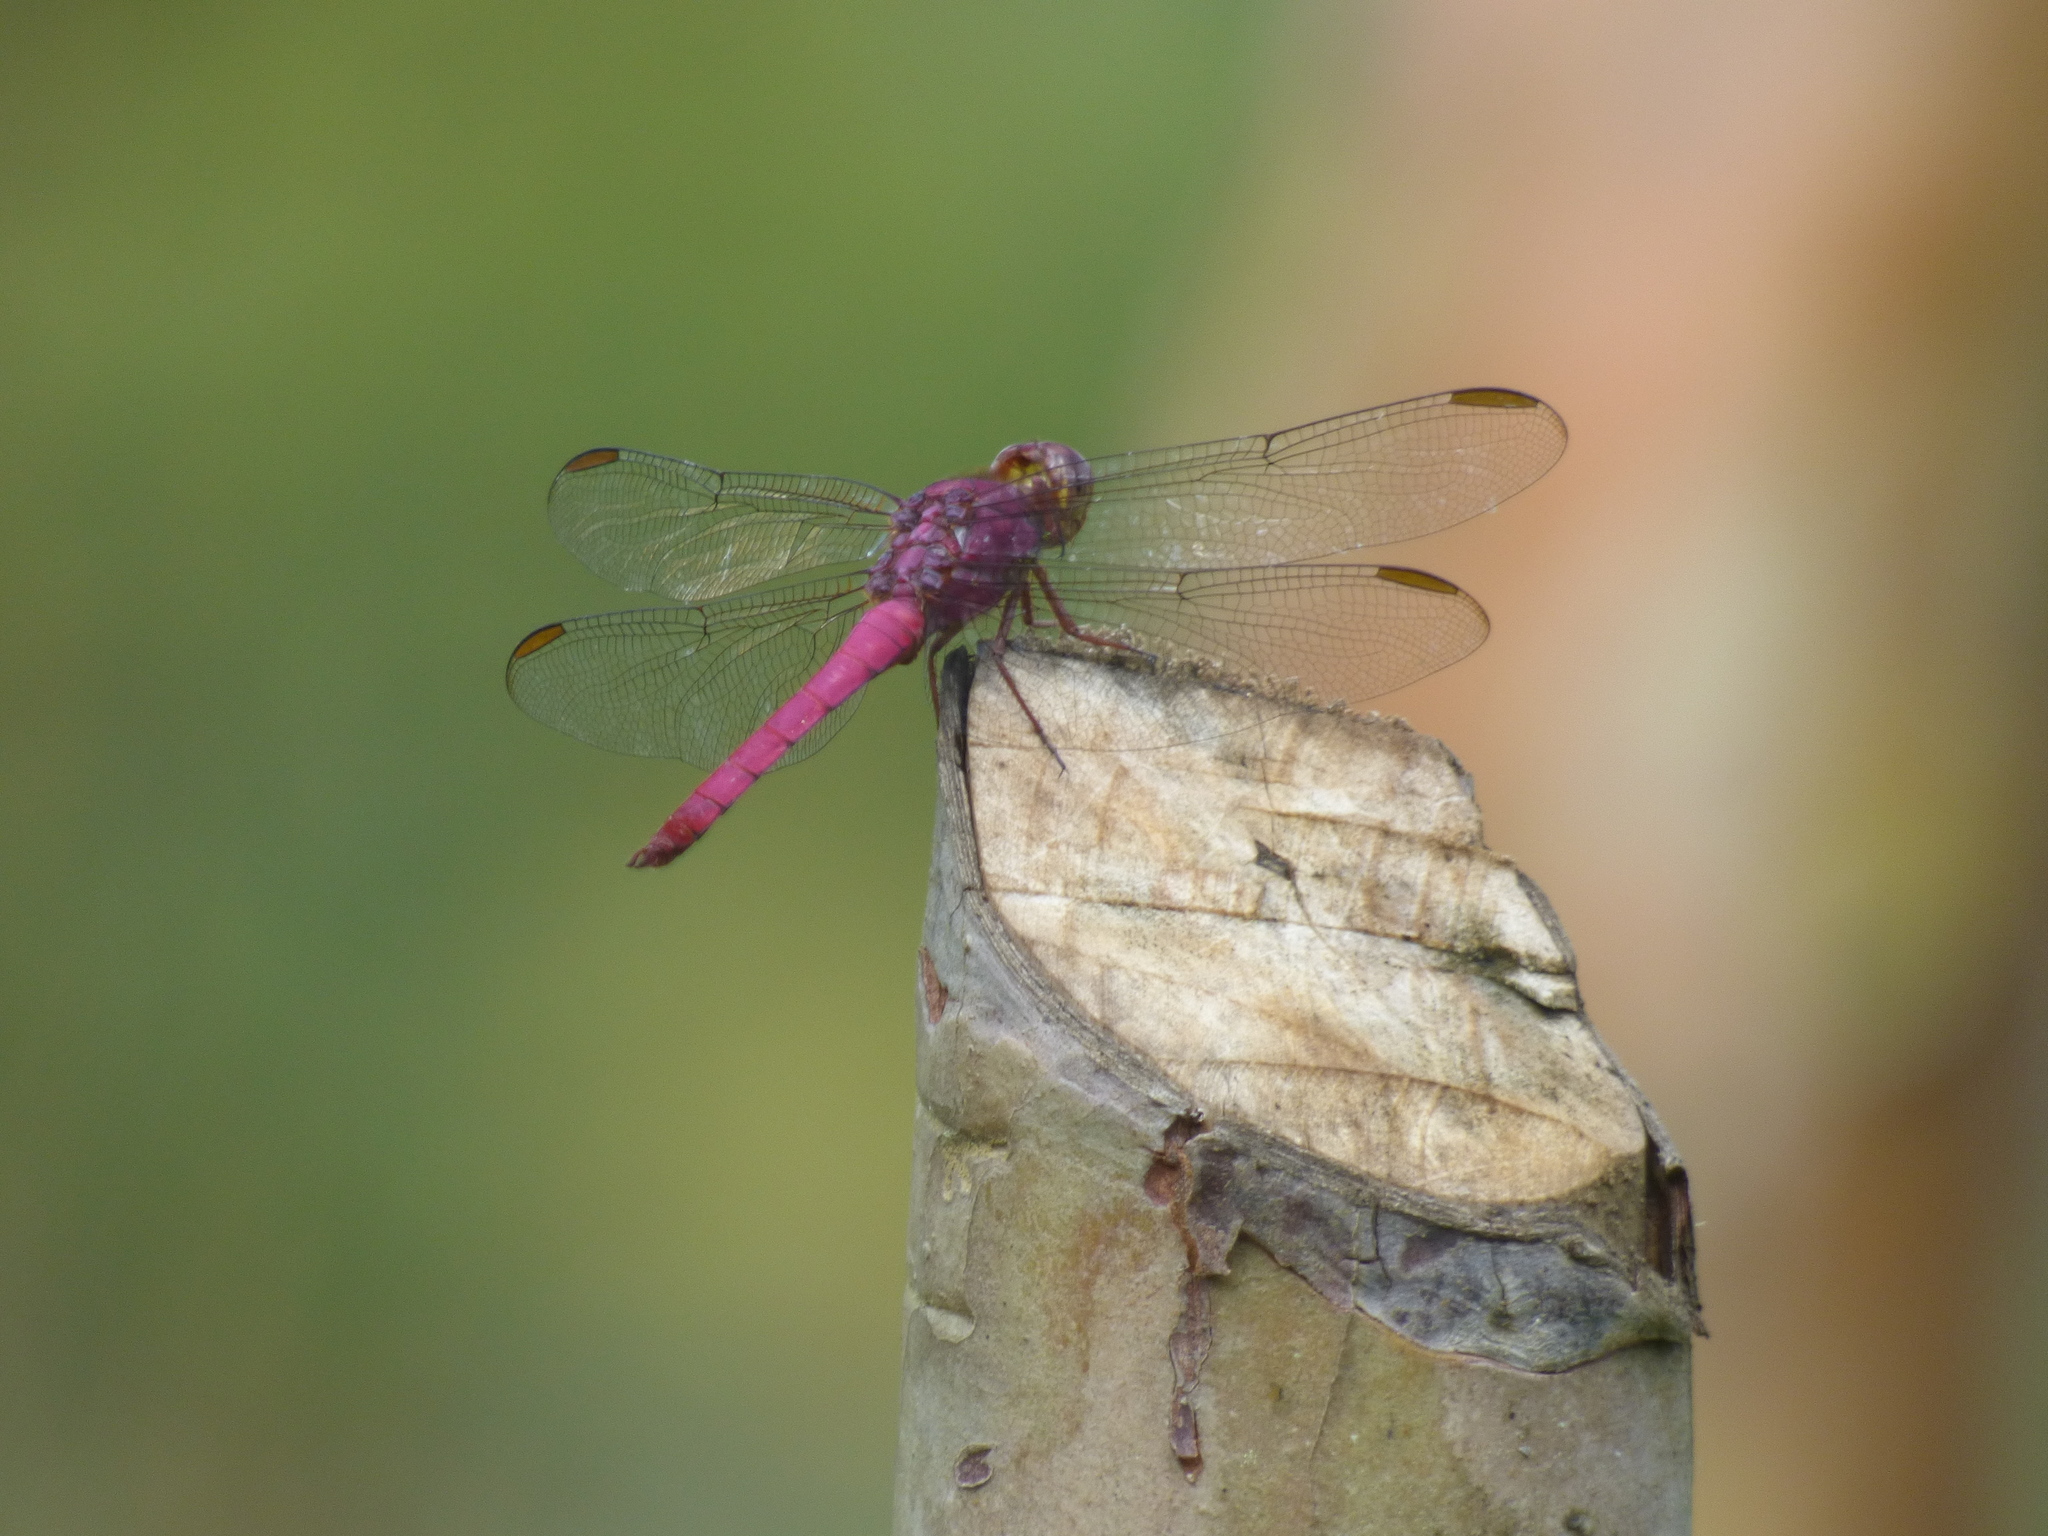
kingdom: Animalia
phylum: Arthropoda
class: Insecta
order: Odonata
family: Libellulidae
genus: Orthemis
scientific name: Orthemis ferruginea
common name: Roseate skimmer
